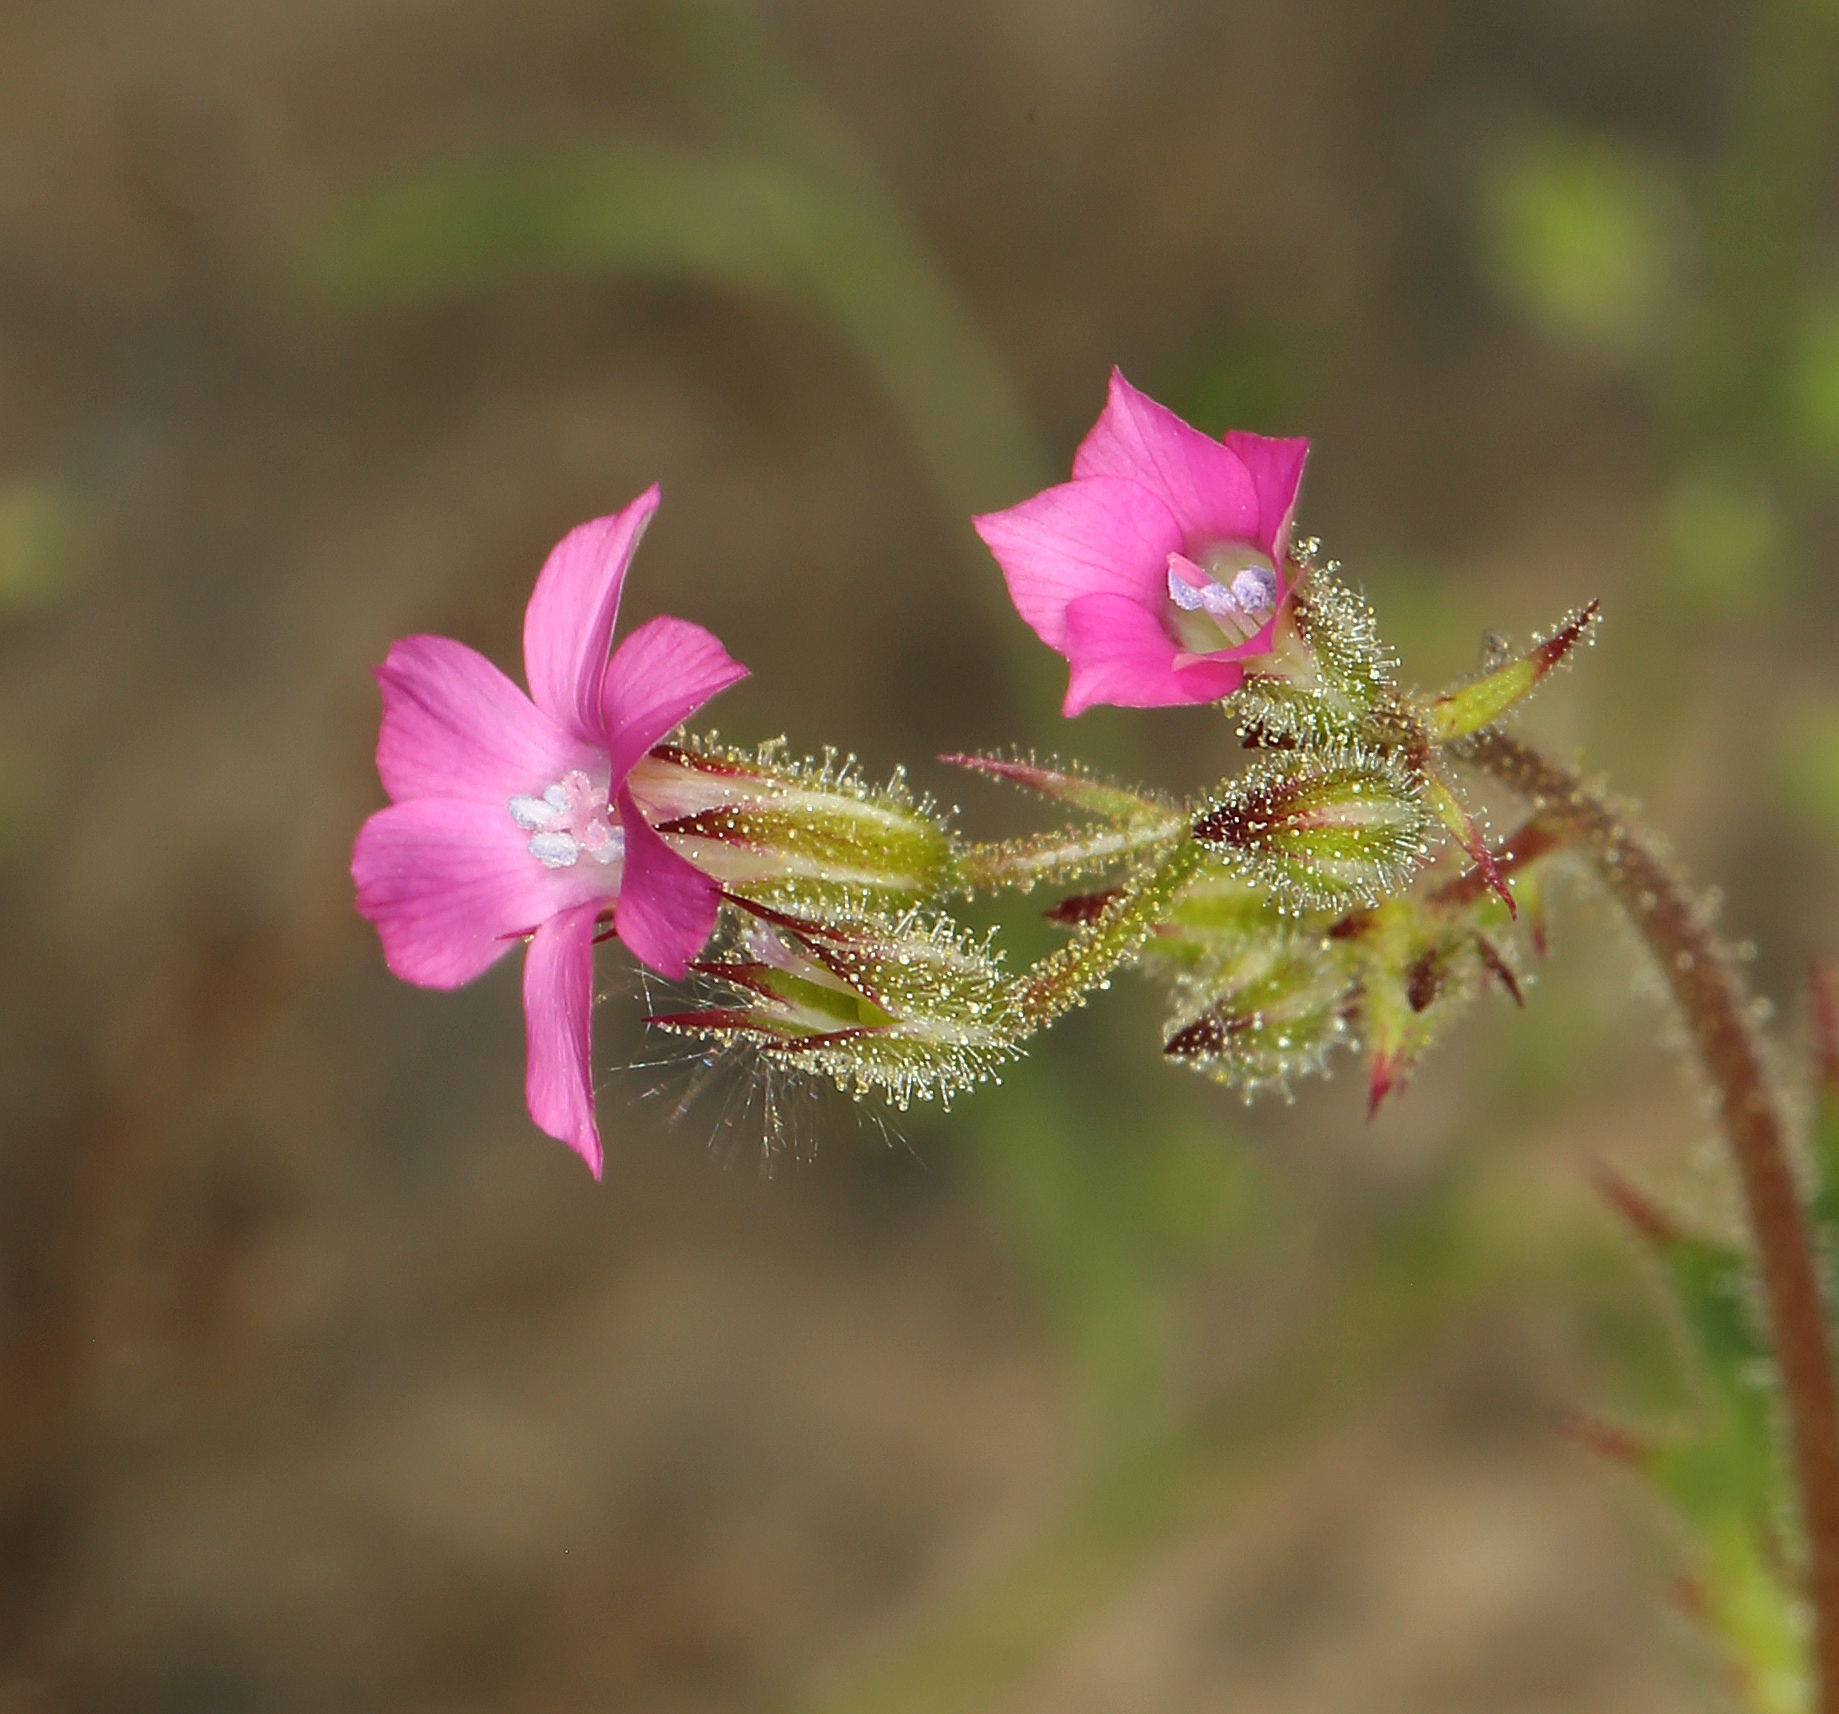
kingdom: Plantae
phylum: Tracheophyta
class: Magnoliopsida
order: Ericales
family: Polemoniaceae
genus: Aliciella
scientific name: Aliciella latifolia
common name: Broad-leaf gilia
